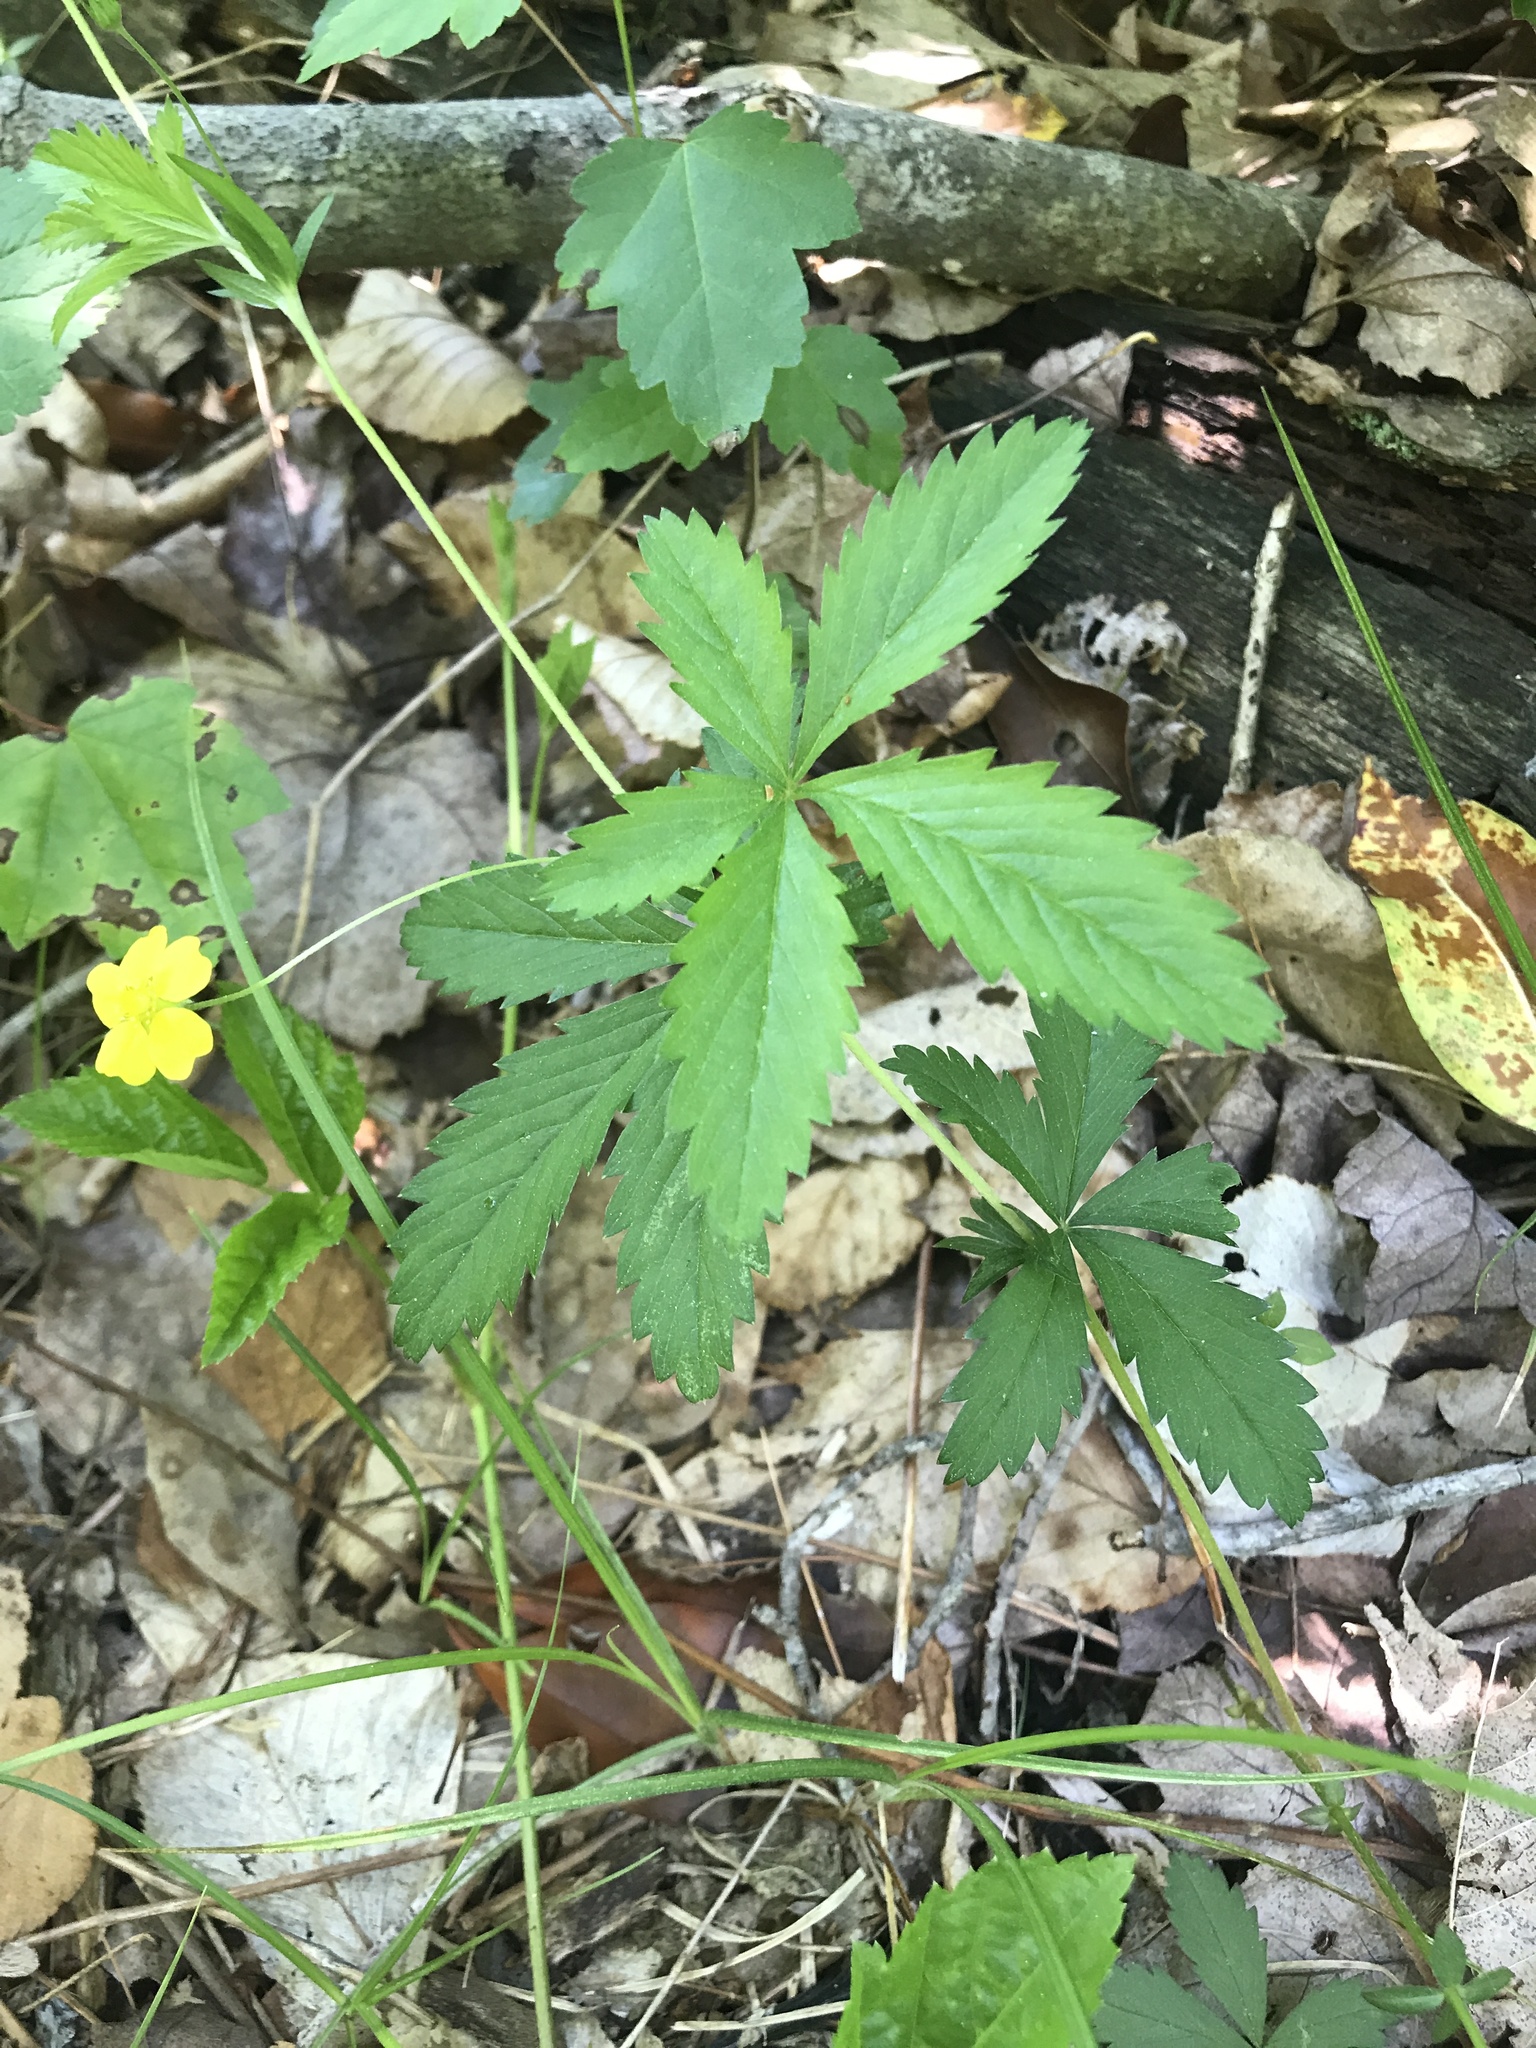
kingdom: Plantae
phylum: Tracheophyta
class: Magnoliopsida
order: Rosales
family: Rosaceae
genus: Potentilla
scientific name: Potentilla simplex
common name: Old field cinquefoil
